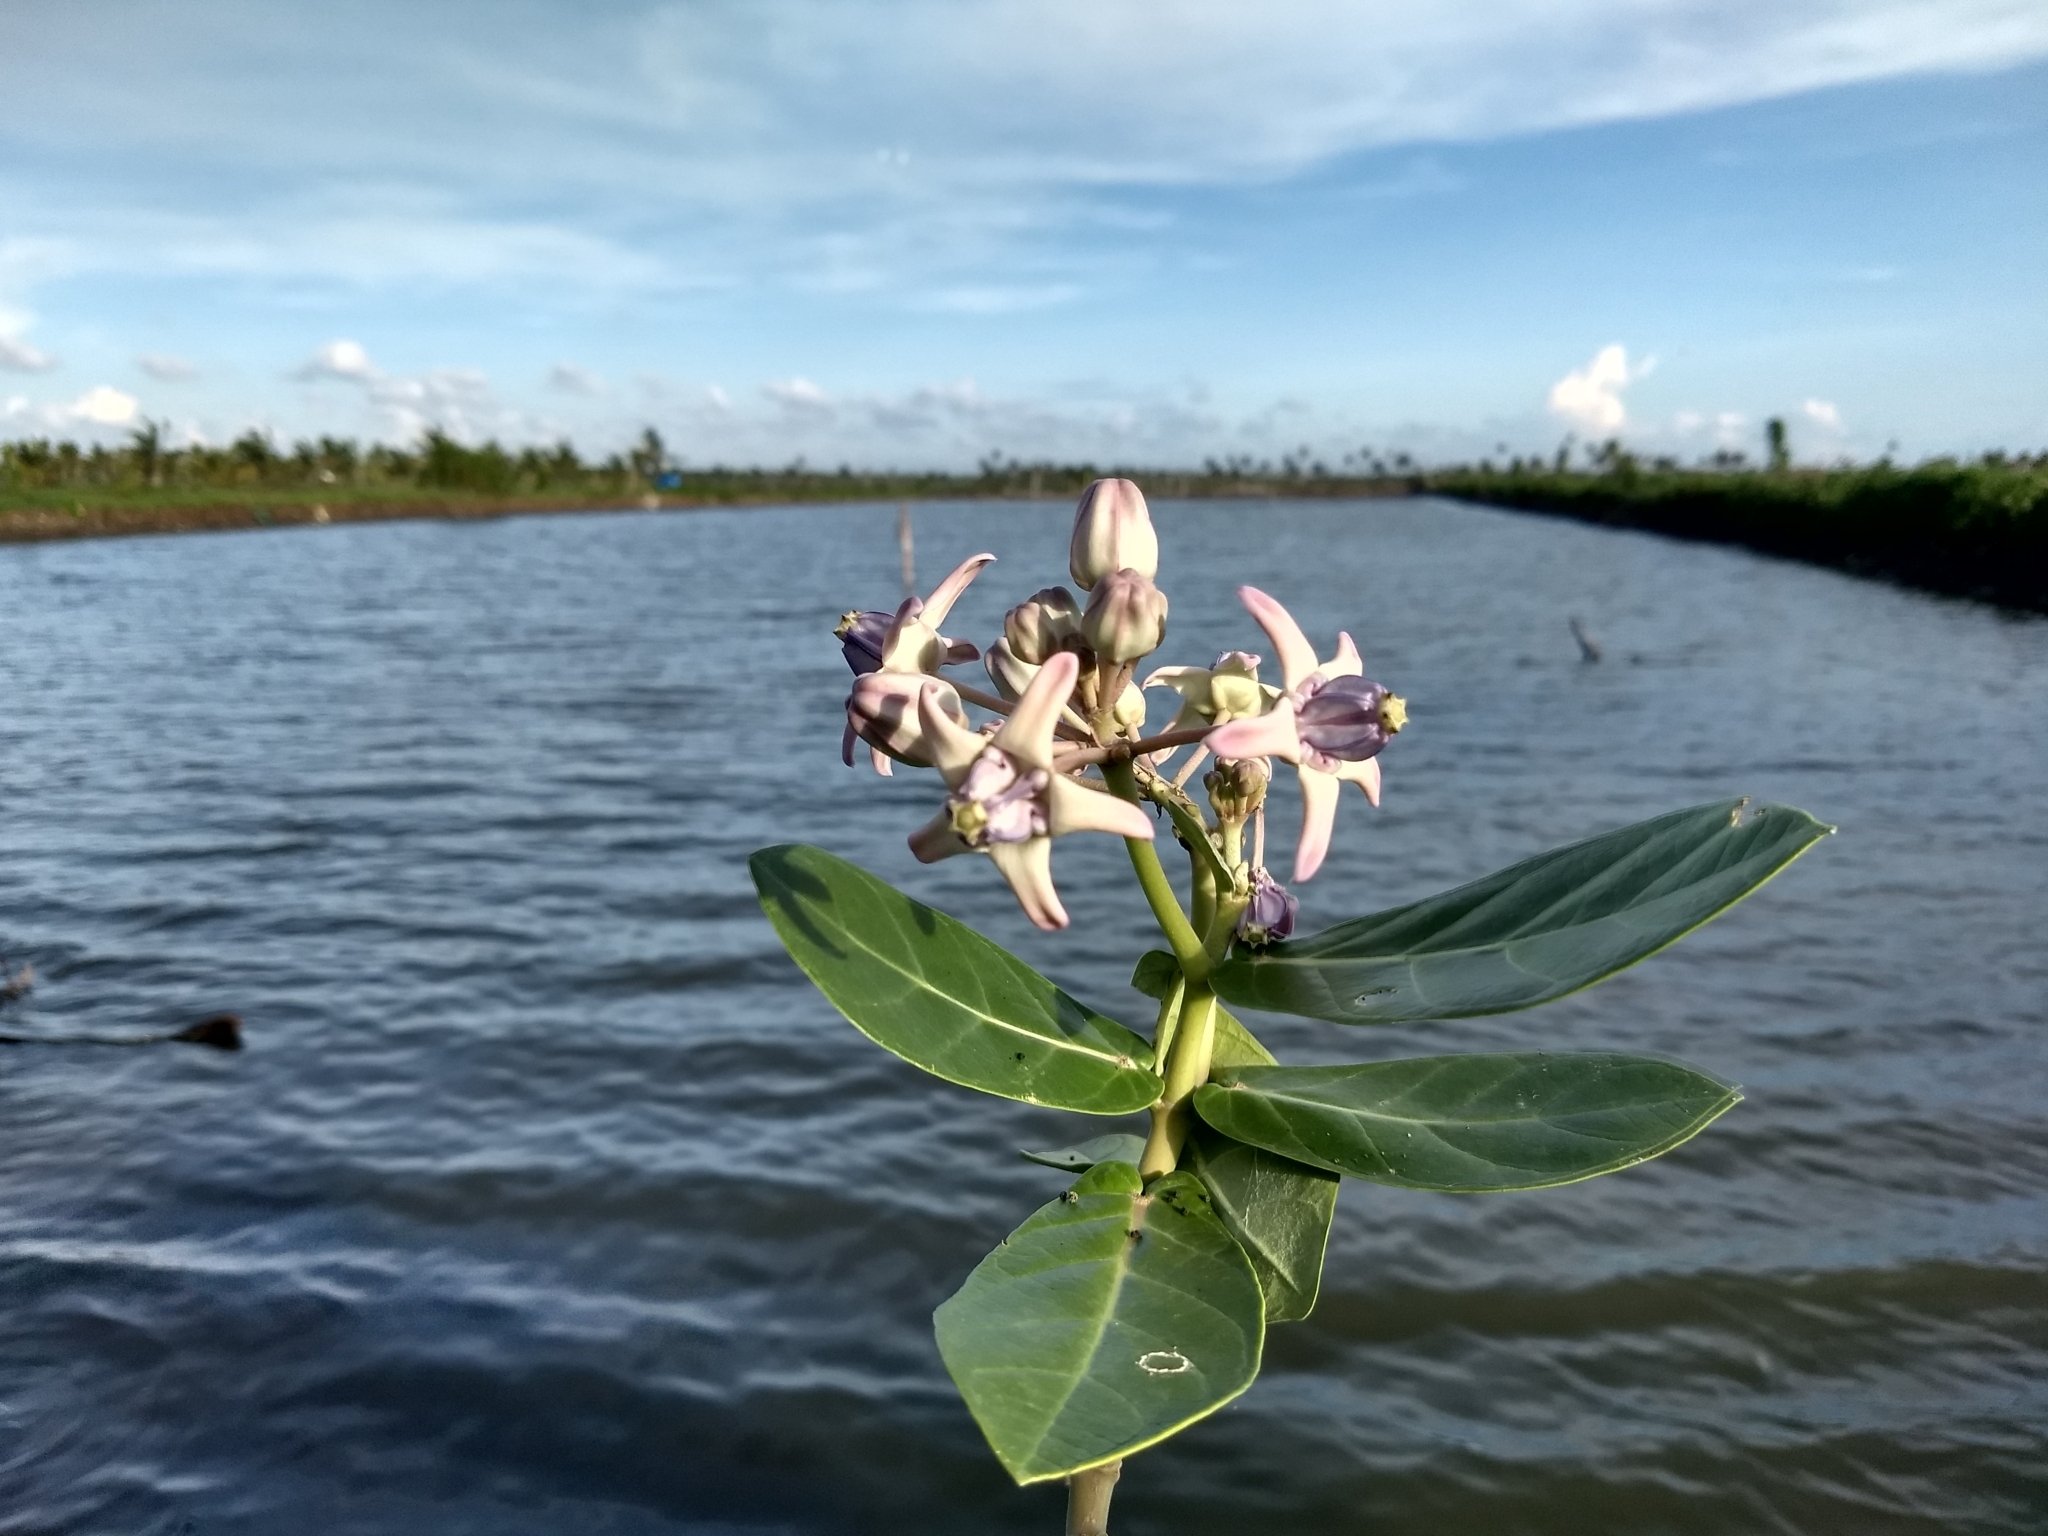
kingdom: Plantae
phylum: Tracheophyta
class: Magnoliopsida
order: Gentianales
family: Apocynaceae
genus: Calotropis
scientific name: Calotropis gigantea
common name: Crown flower
